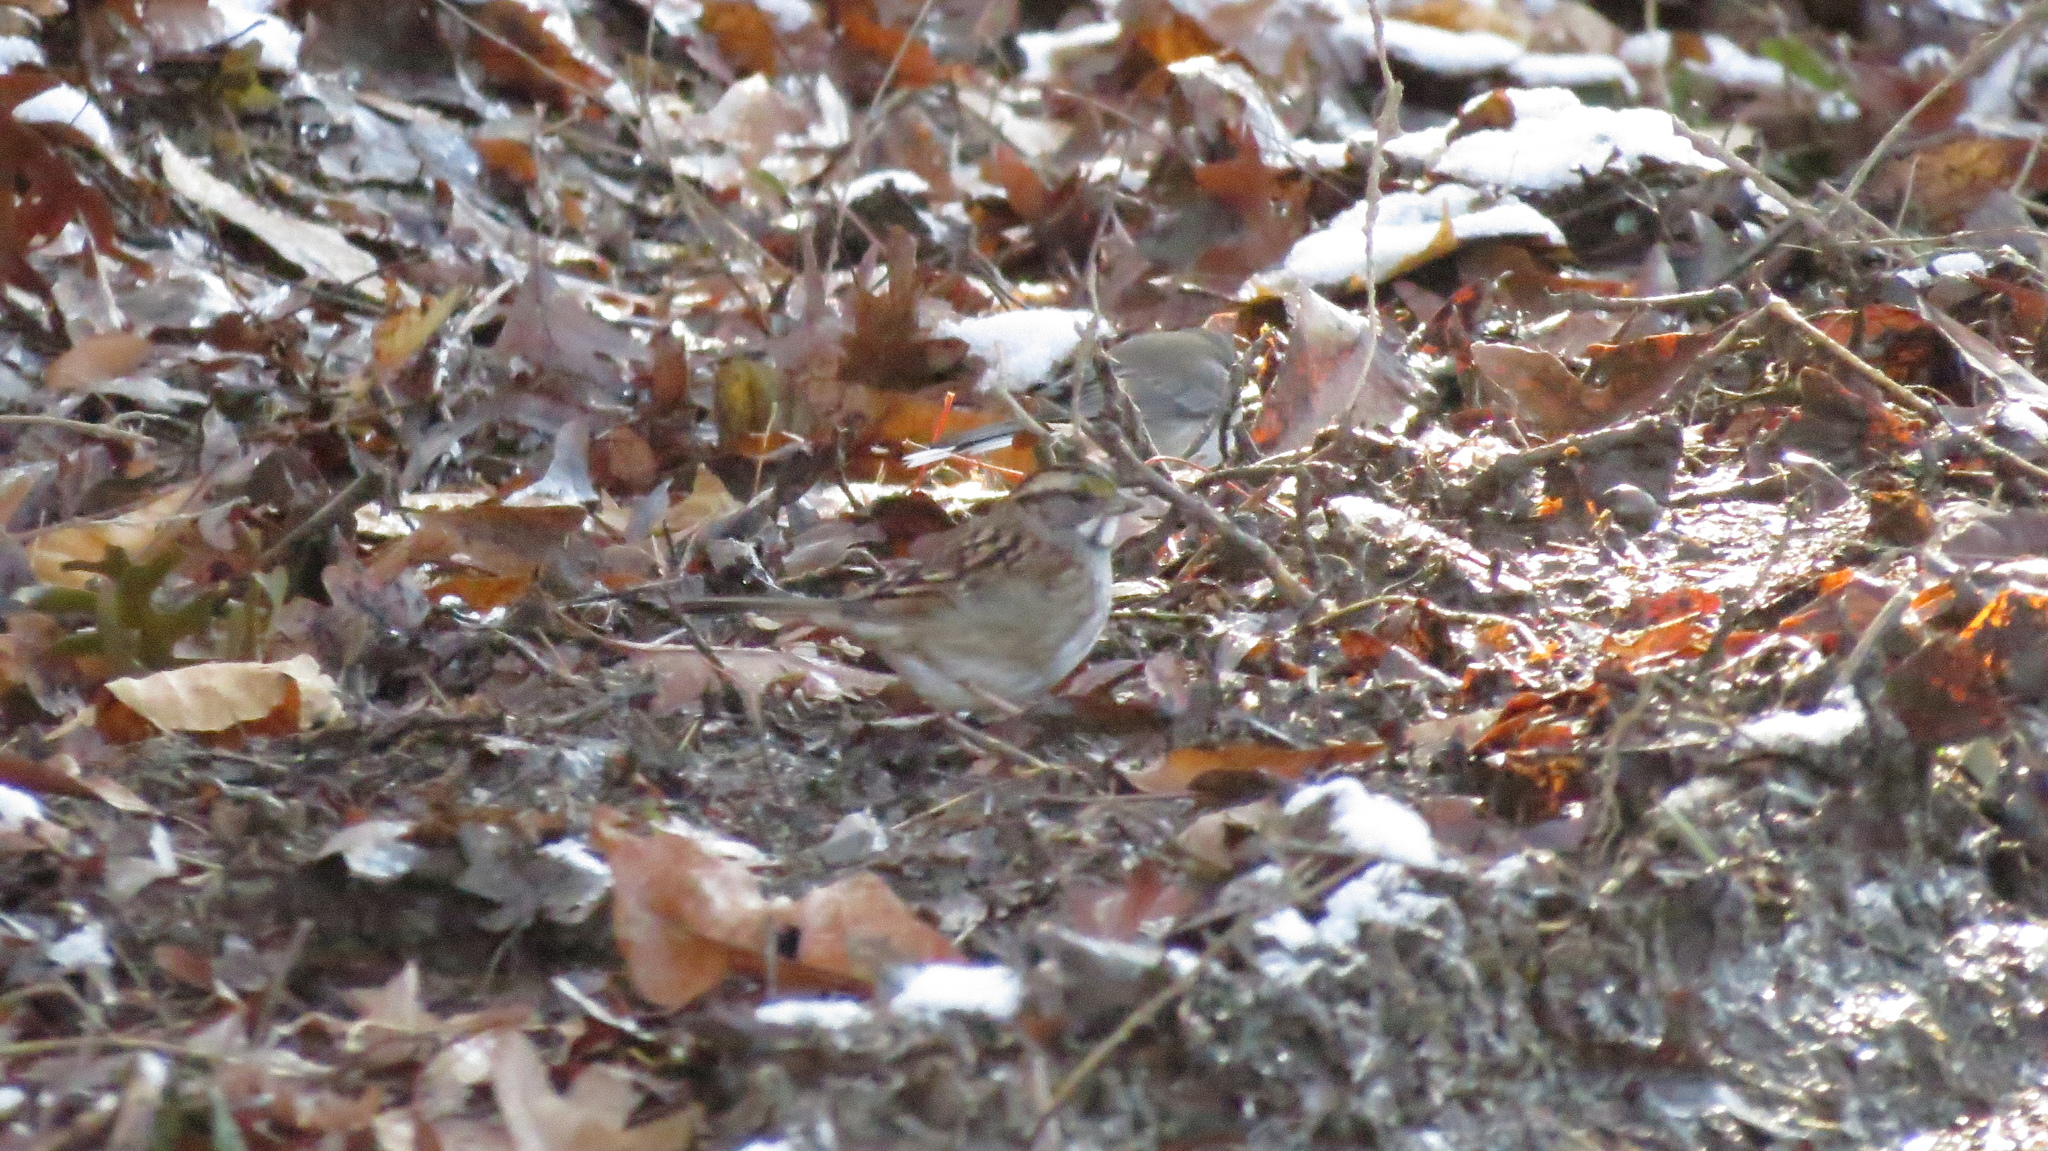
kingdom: Animalia
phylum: Chordata
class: Aves
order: Passeriformes
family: Passerellidae
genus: Zonotrichia
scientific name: Zonotrichia albicollis
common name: White-throated sparrow
